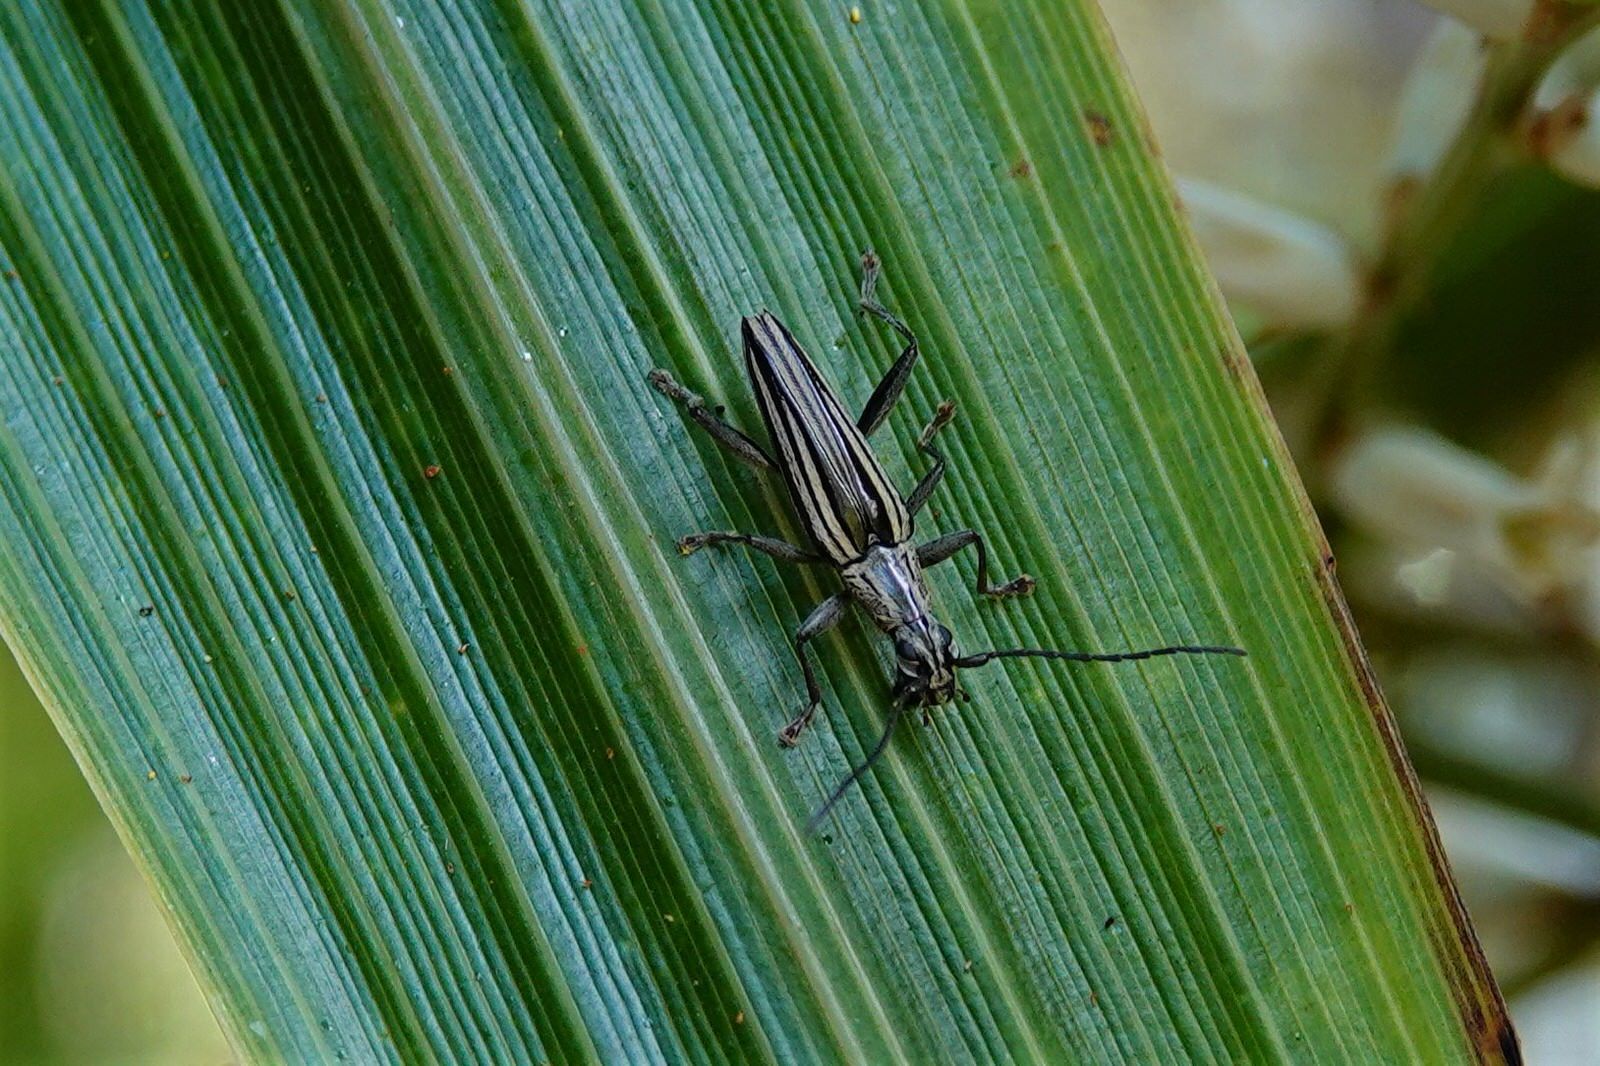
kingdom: Animalia
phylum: Arthropoda
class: Insecta
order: Coleoptera
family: Cerambycidae
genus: Coptomma
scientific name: Coptomma sulcatum
